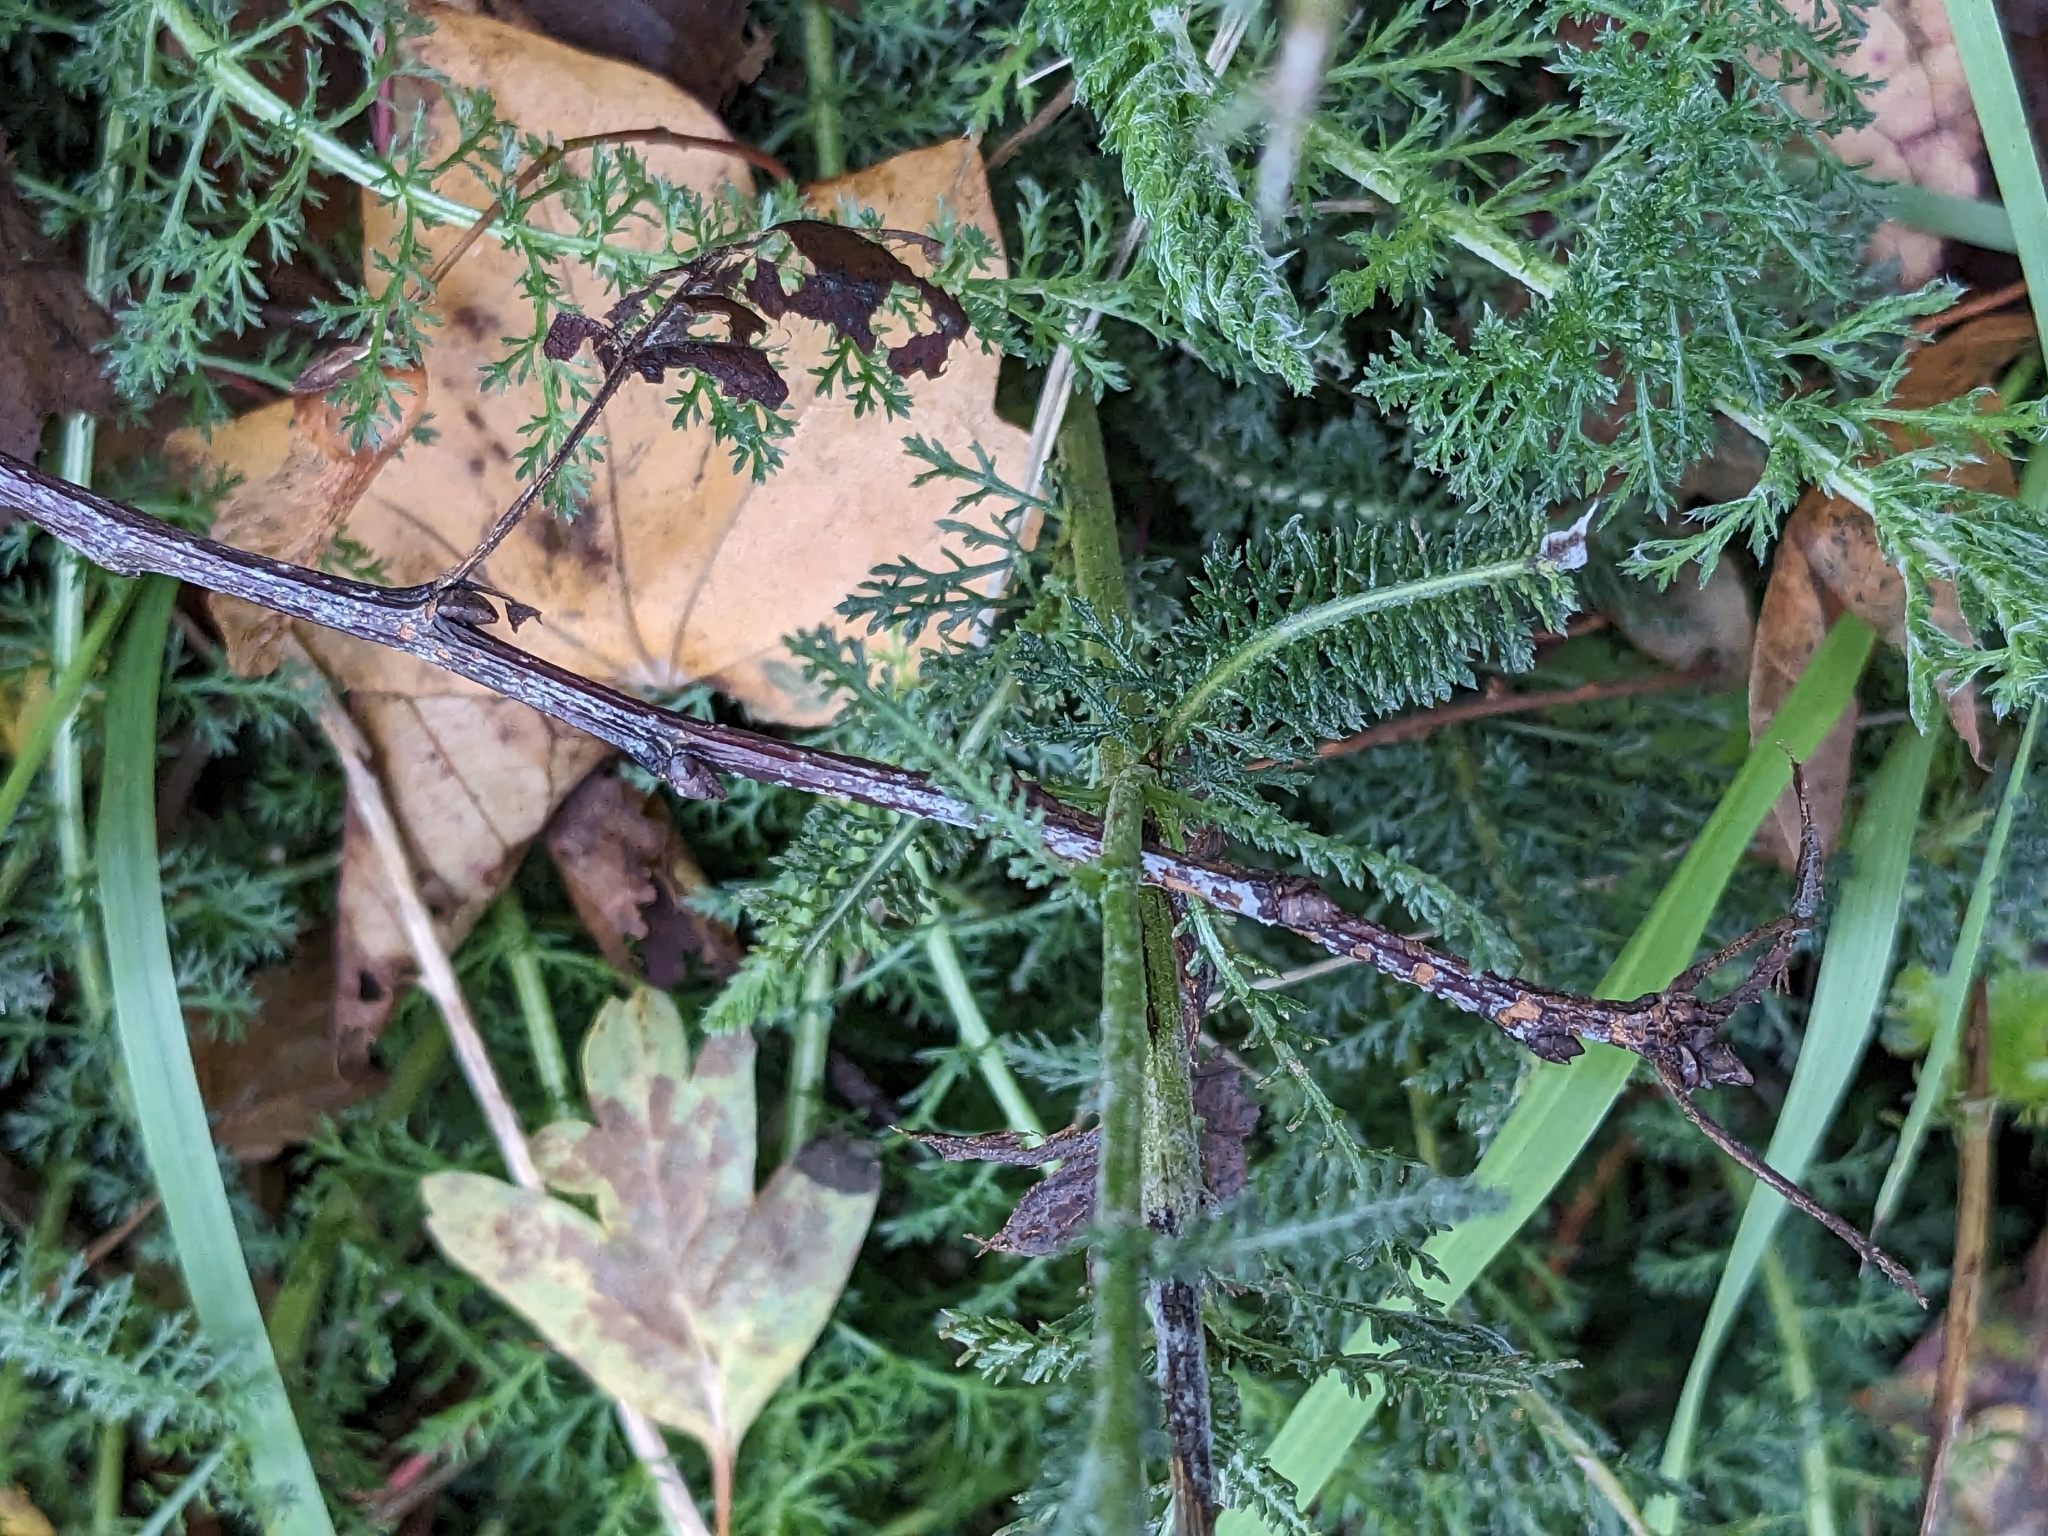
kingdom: Plantae
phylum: Tracheophyta
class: Magnoliopsida
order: Asterales
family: Asteraceae
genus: Achillea
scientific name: Achillea millefolium
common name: Yarrow
